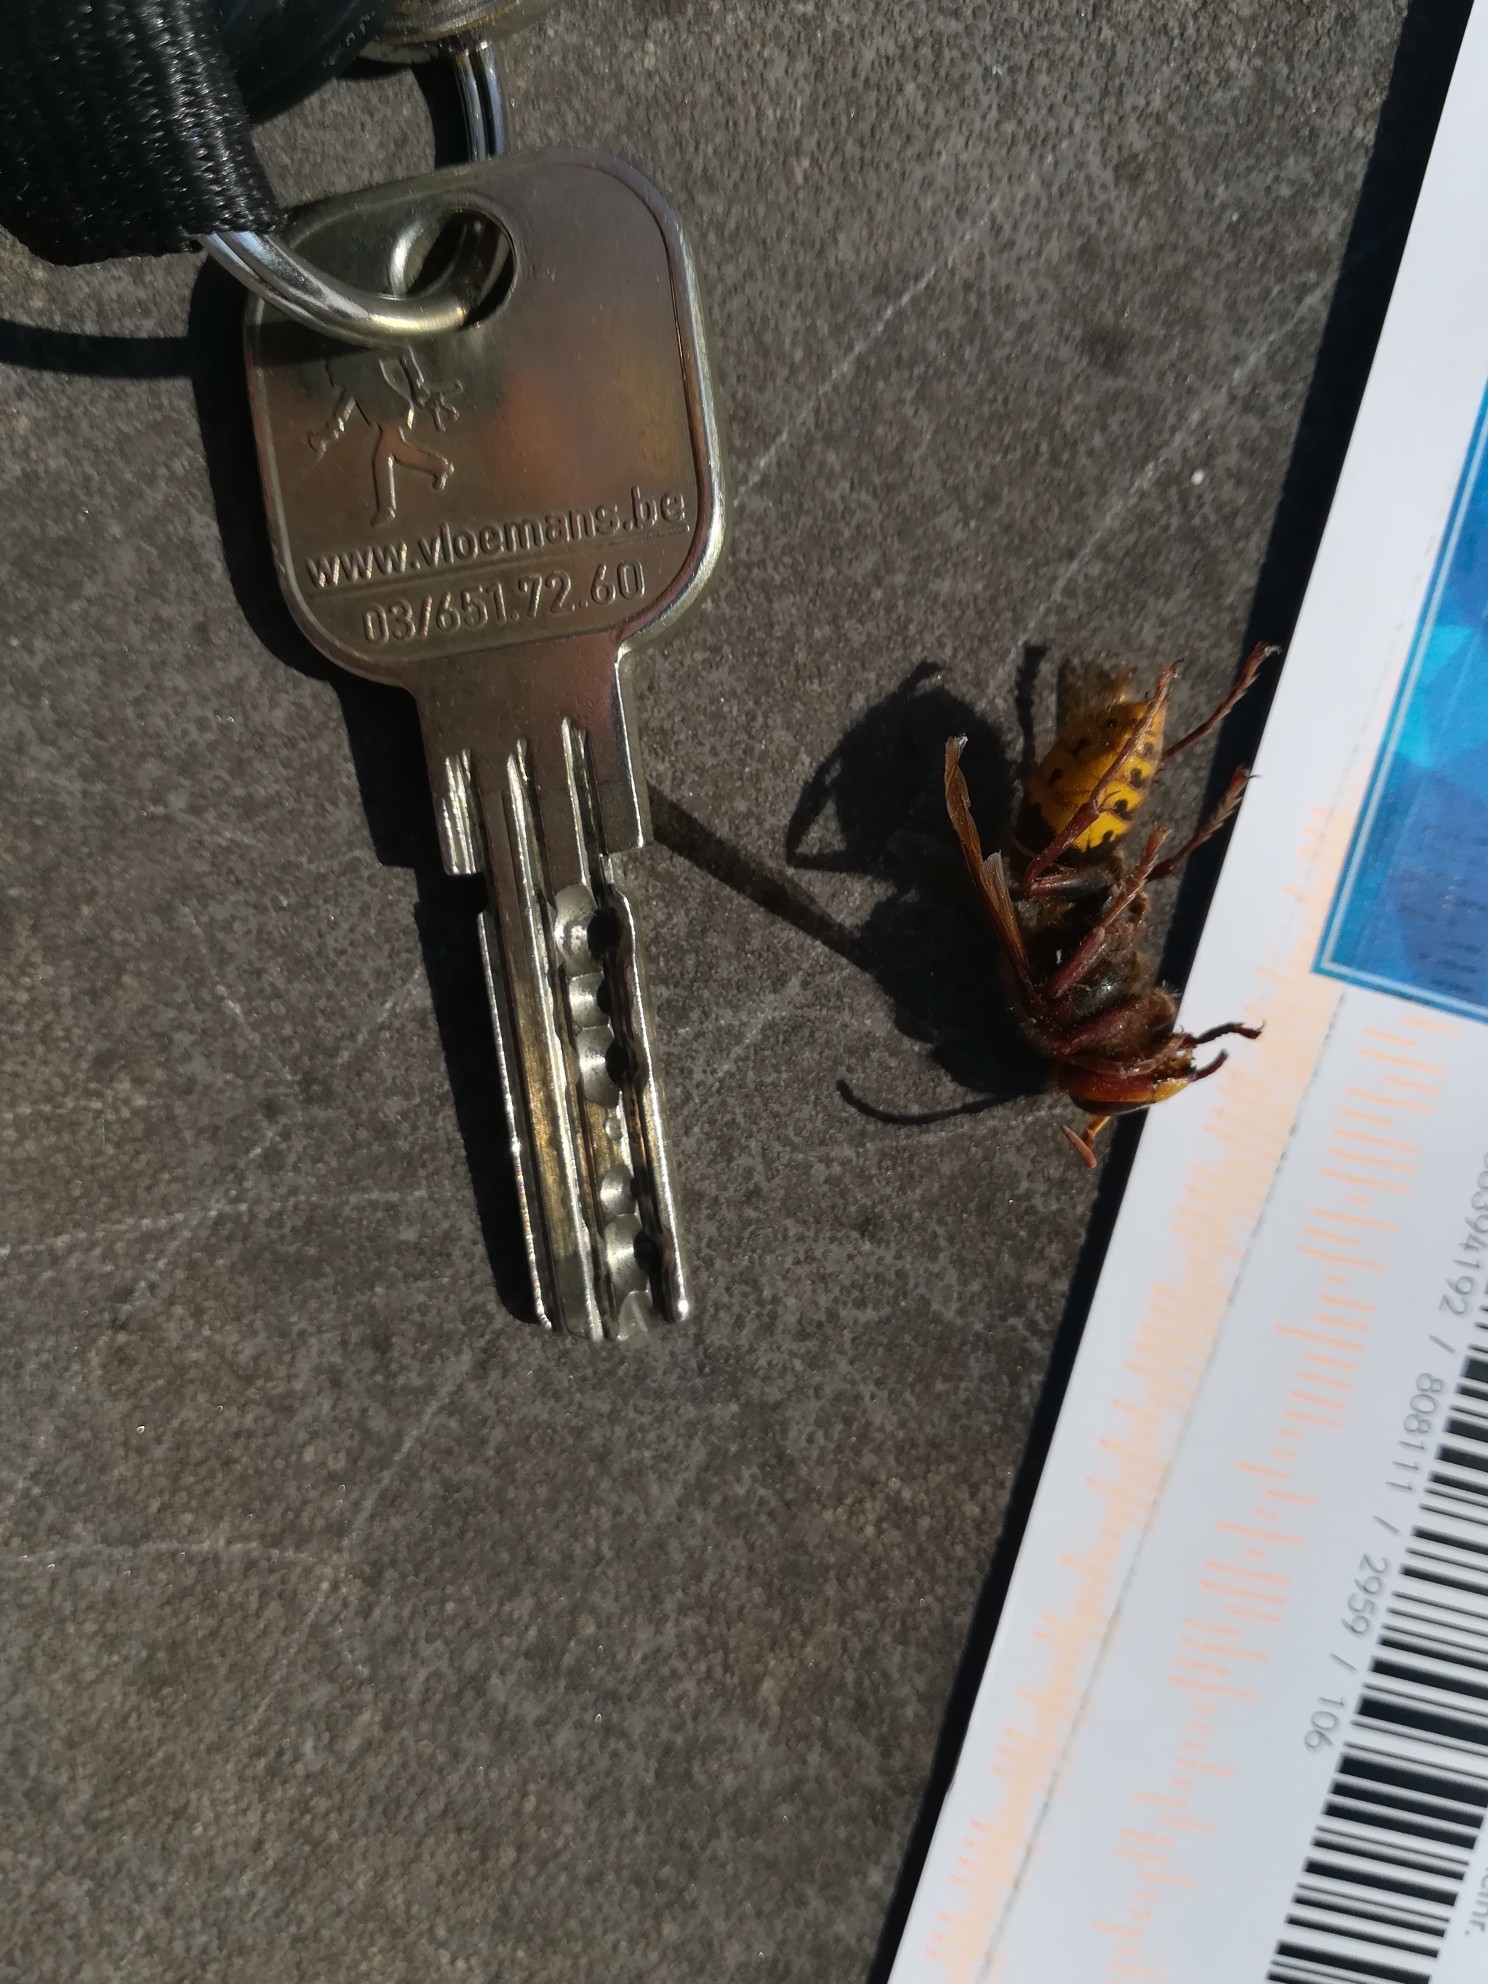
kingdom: Animalia
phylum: Arthropoda
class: Insecta
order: Hymenoptera
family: Vespidae
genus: Vespa
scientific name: Vespa crabro
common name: Hornet
